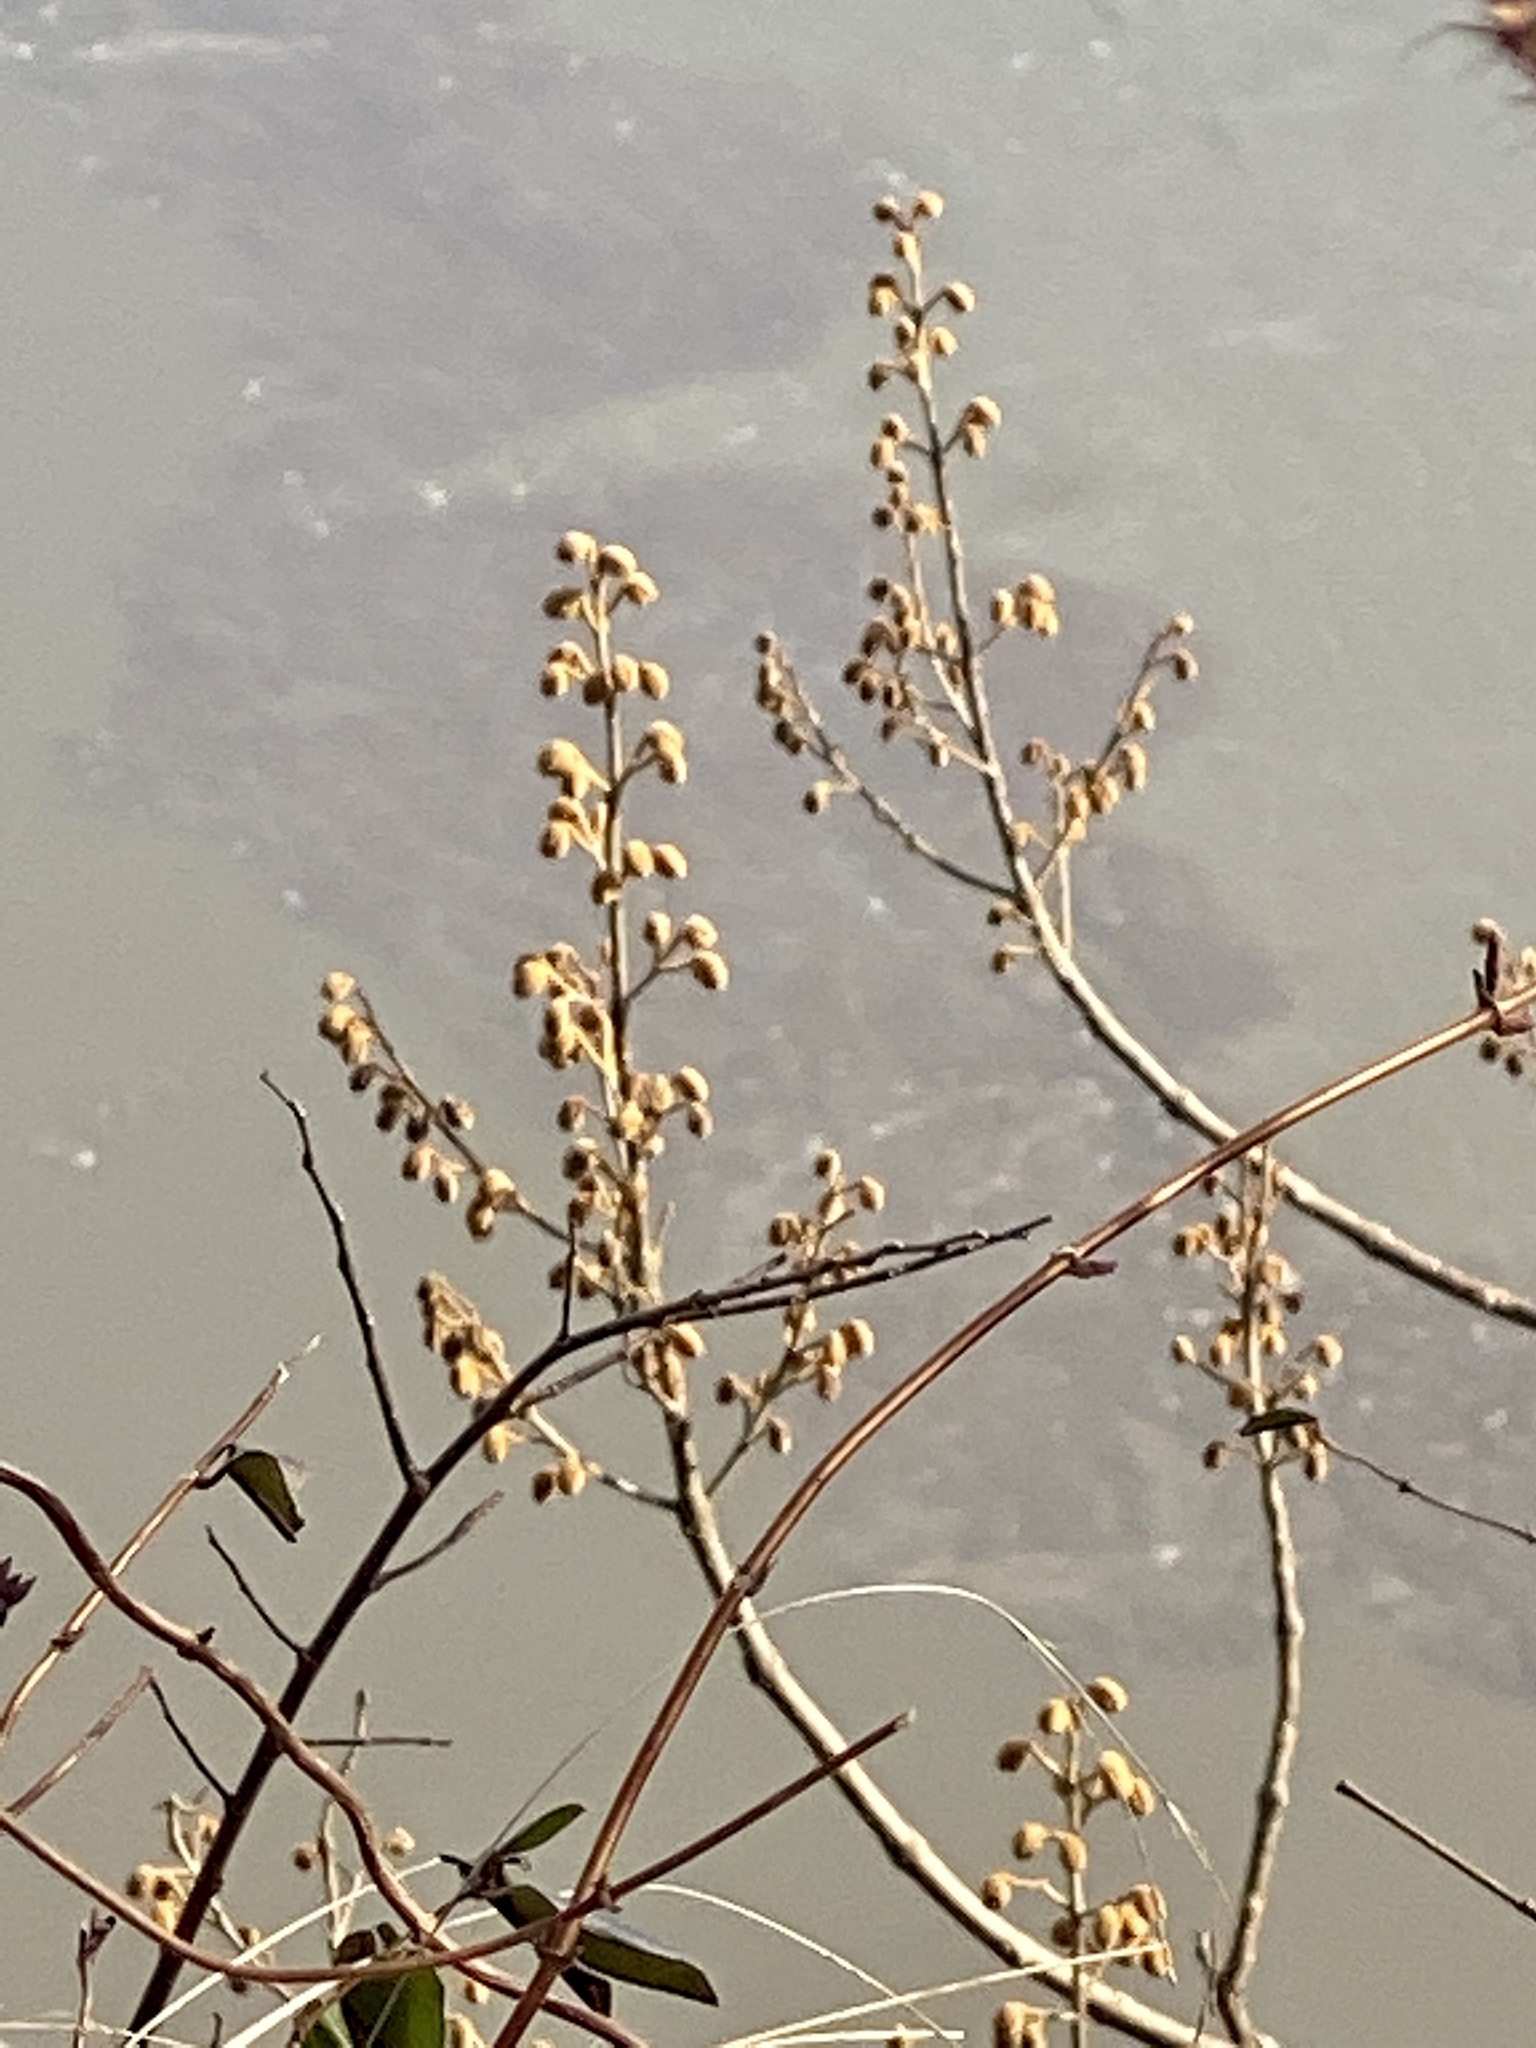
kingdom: Plantae
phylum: Tracheophyta
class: Magnoliopsida
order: Lamiales
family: Paulowniaceae
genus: Paulownia
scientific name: Paulownia tomentosa
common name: Foxglove-tree
